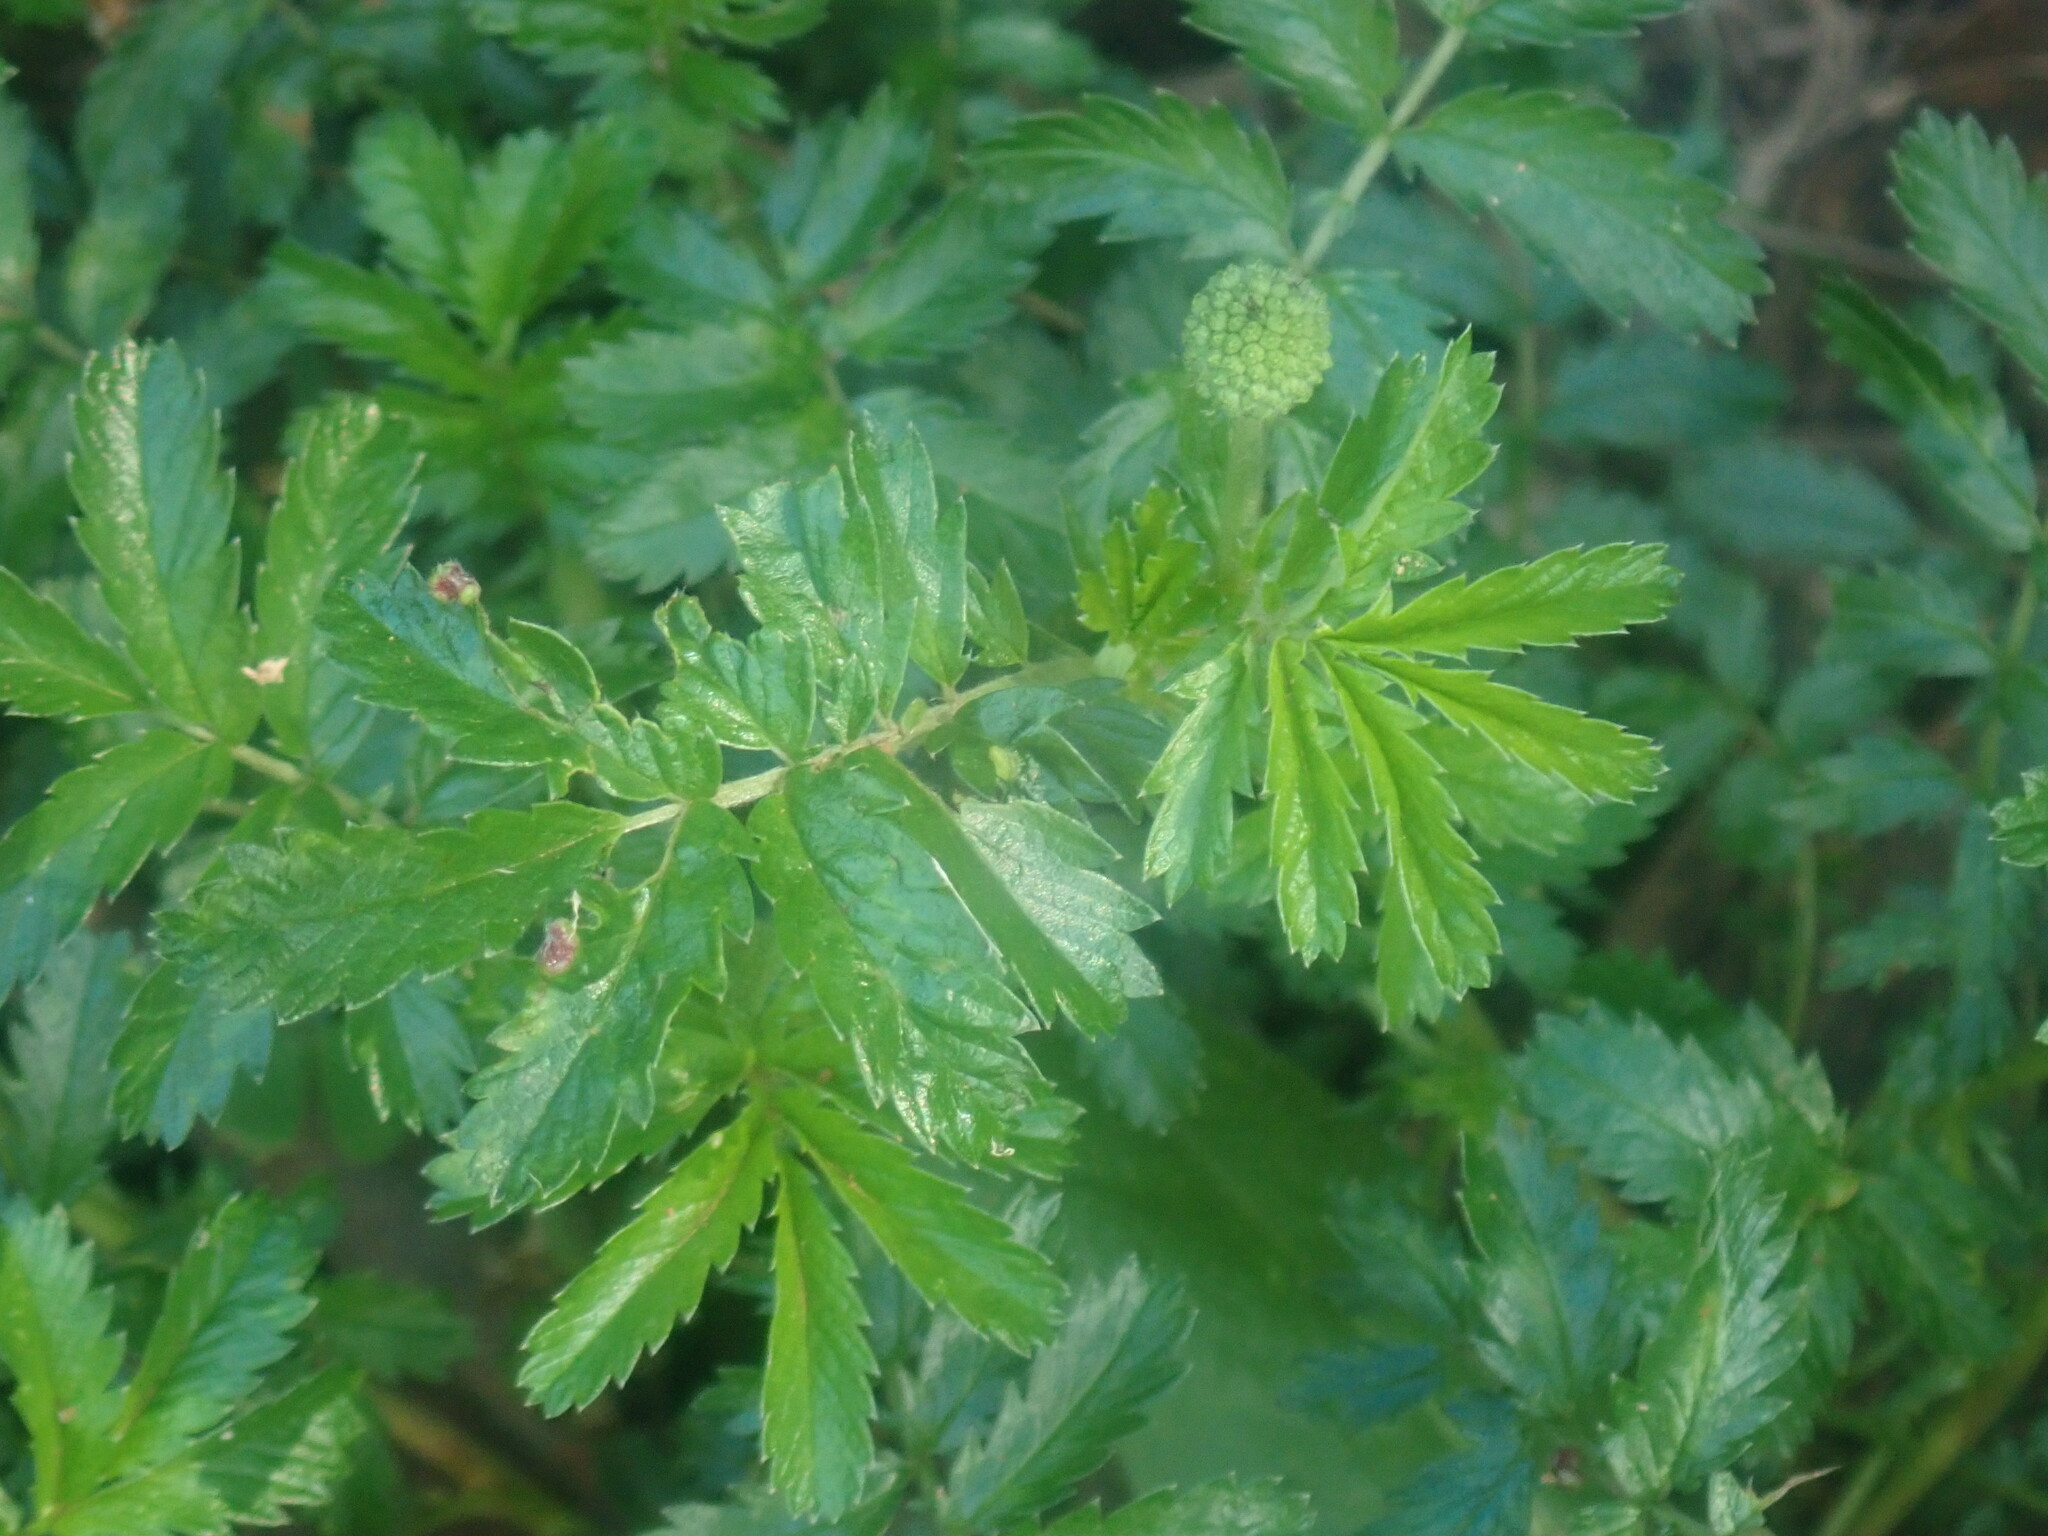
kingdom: Plantae
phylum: Tracheophyta
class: Magnoliopsida
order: Rosales
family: Rosaceae
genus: Acaena
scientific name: Acaena novae-zelandiae
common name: Pirri-pirri-bur
